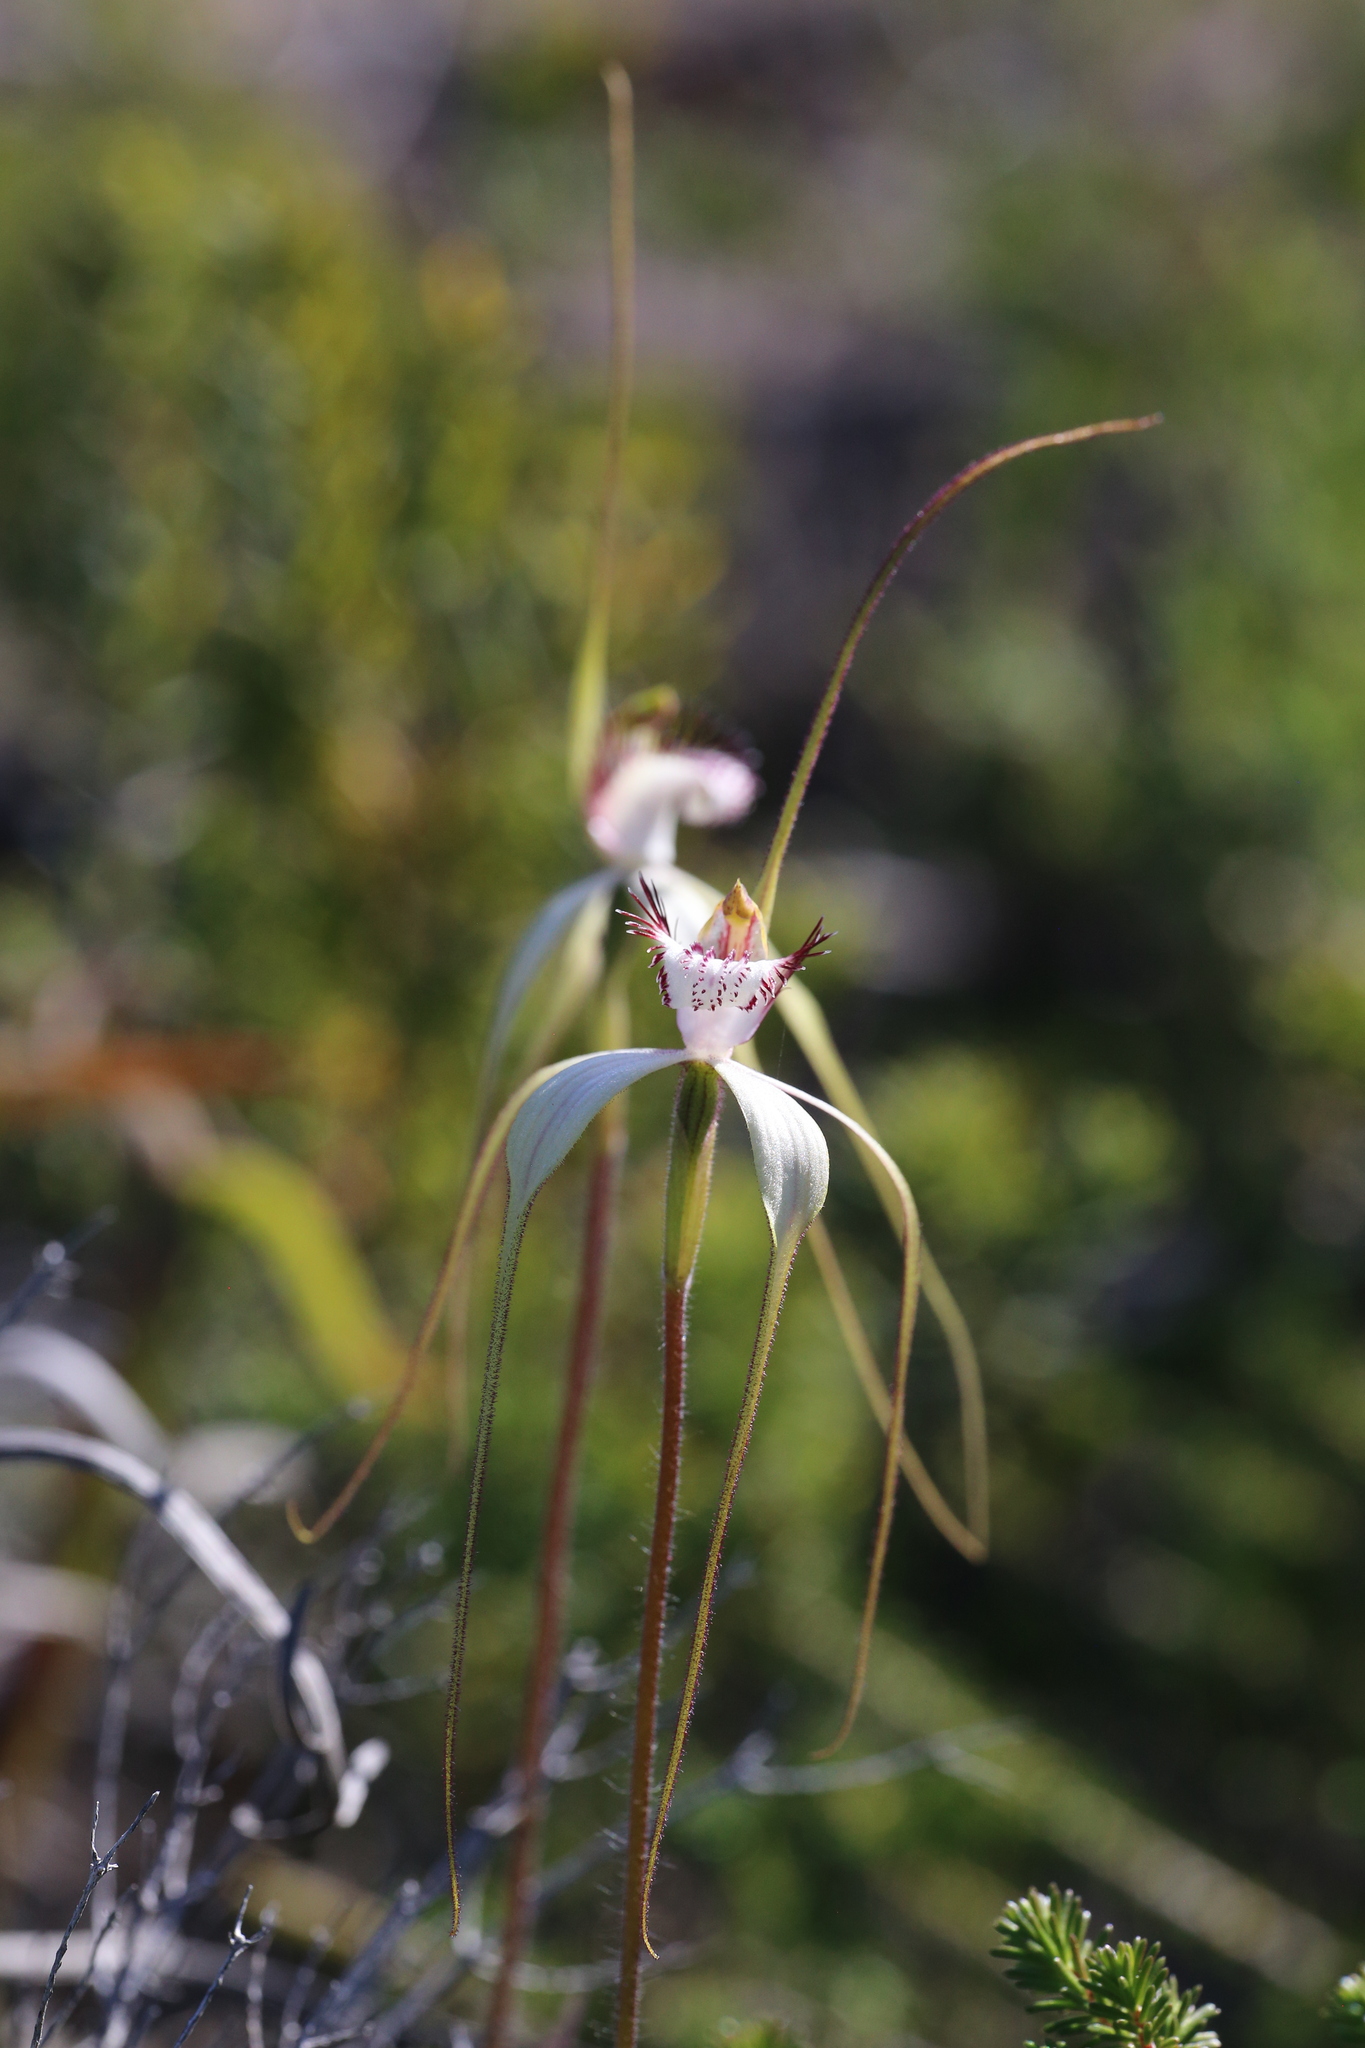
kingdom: Plantae
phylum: Tracheophyta
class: Liliopsida
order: Asparagales
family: Orchidaceae
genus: Caladenia
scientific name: Caladenia longicauda
